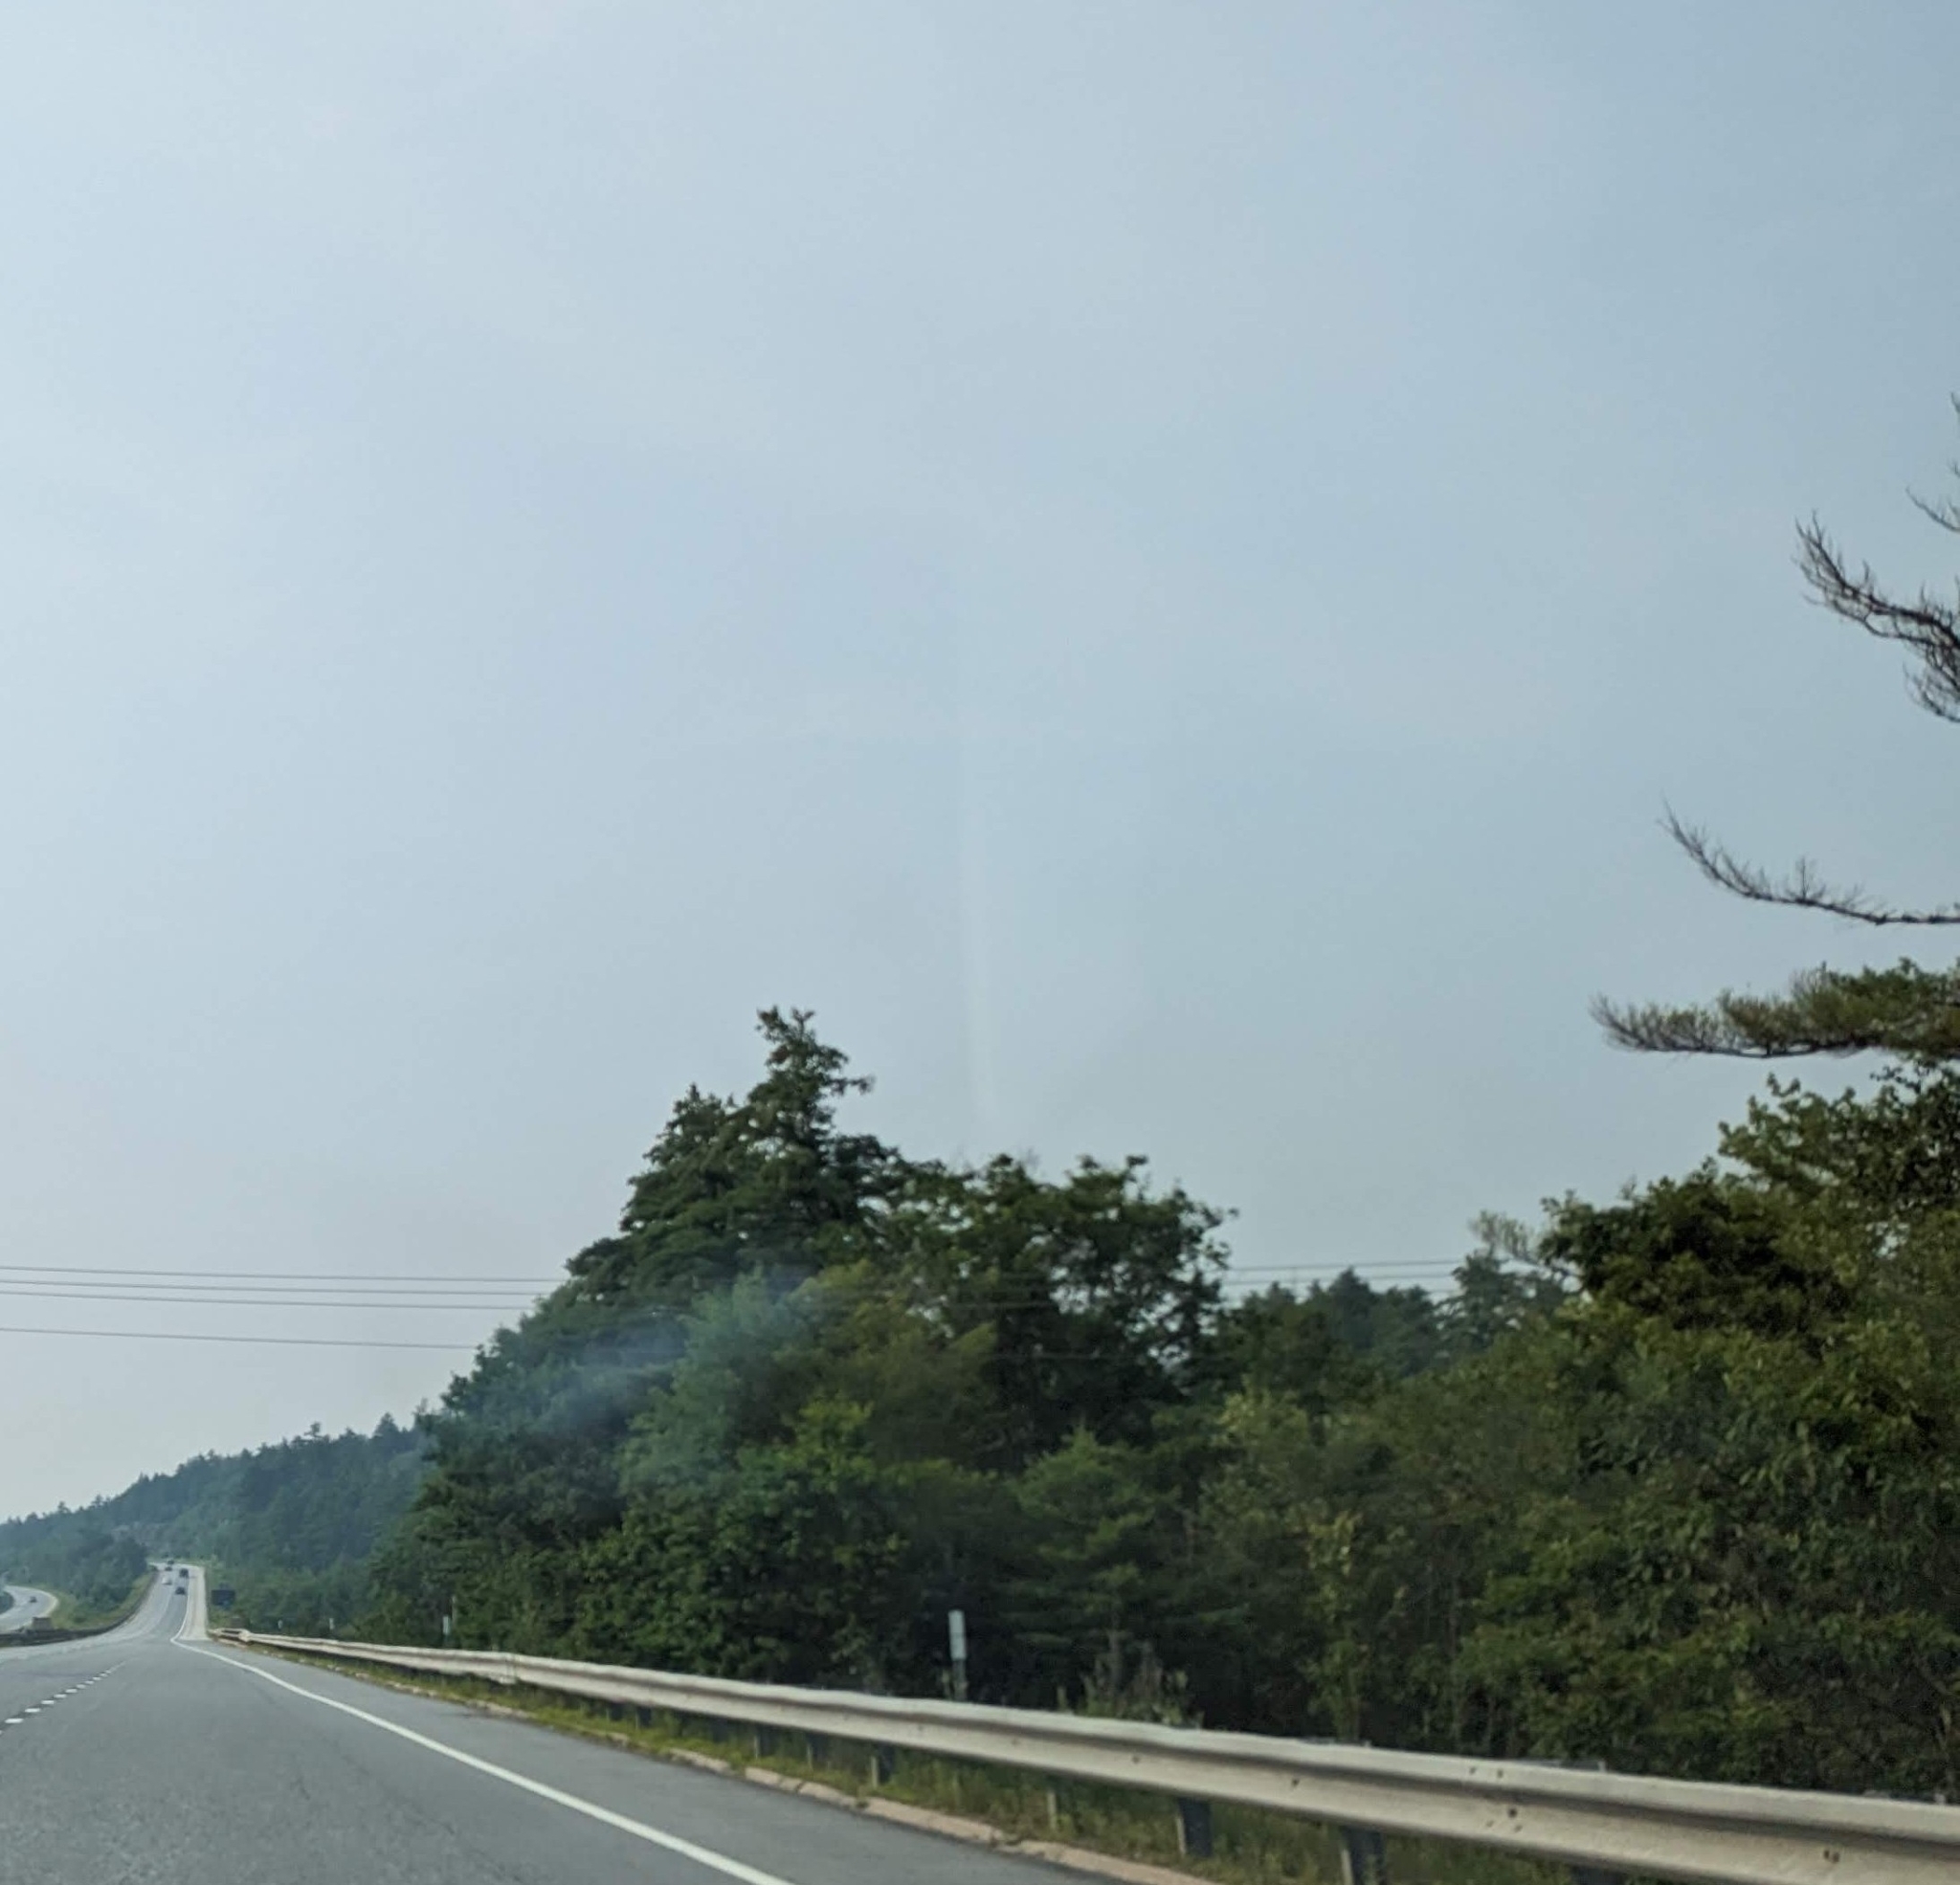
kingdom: Plantae
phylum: Tracheophyta
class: Pinopsida
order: Pinales
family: Pinaceae
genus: Pinus
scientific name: Pinus strobus
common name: Weymouth pine
